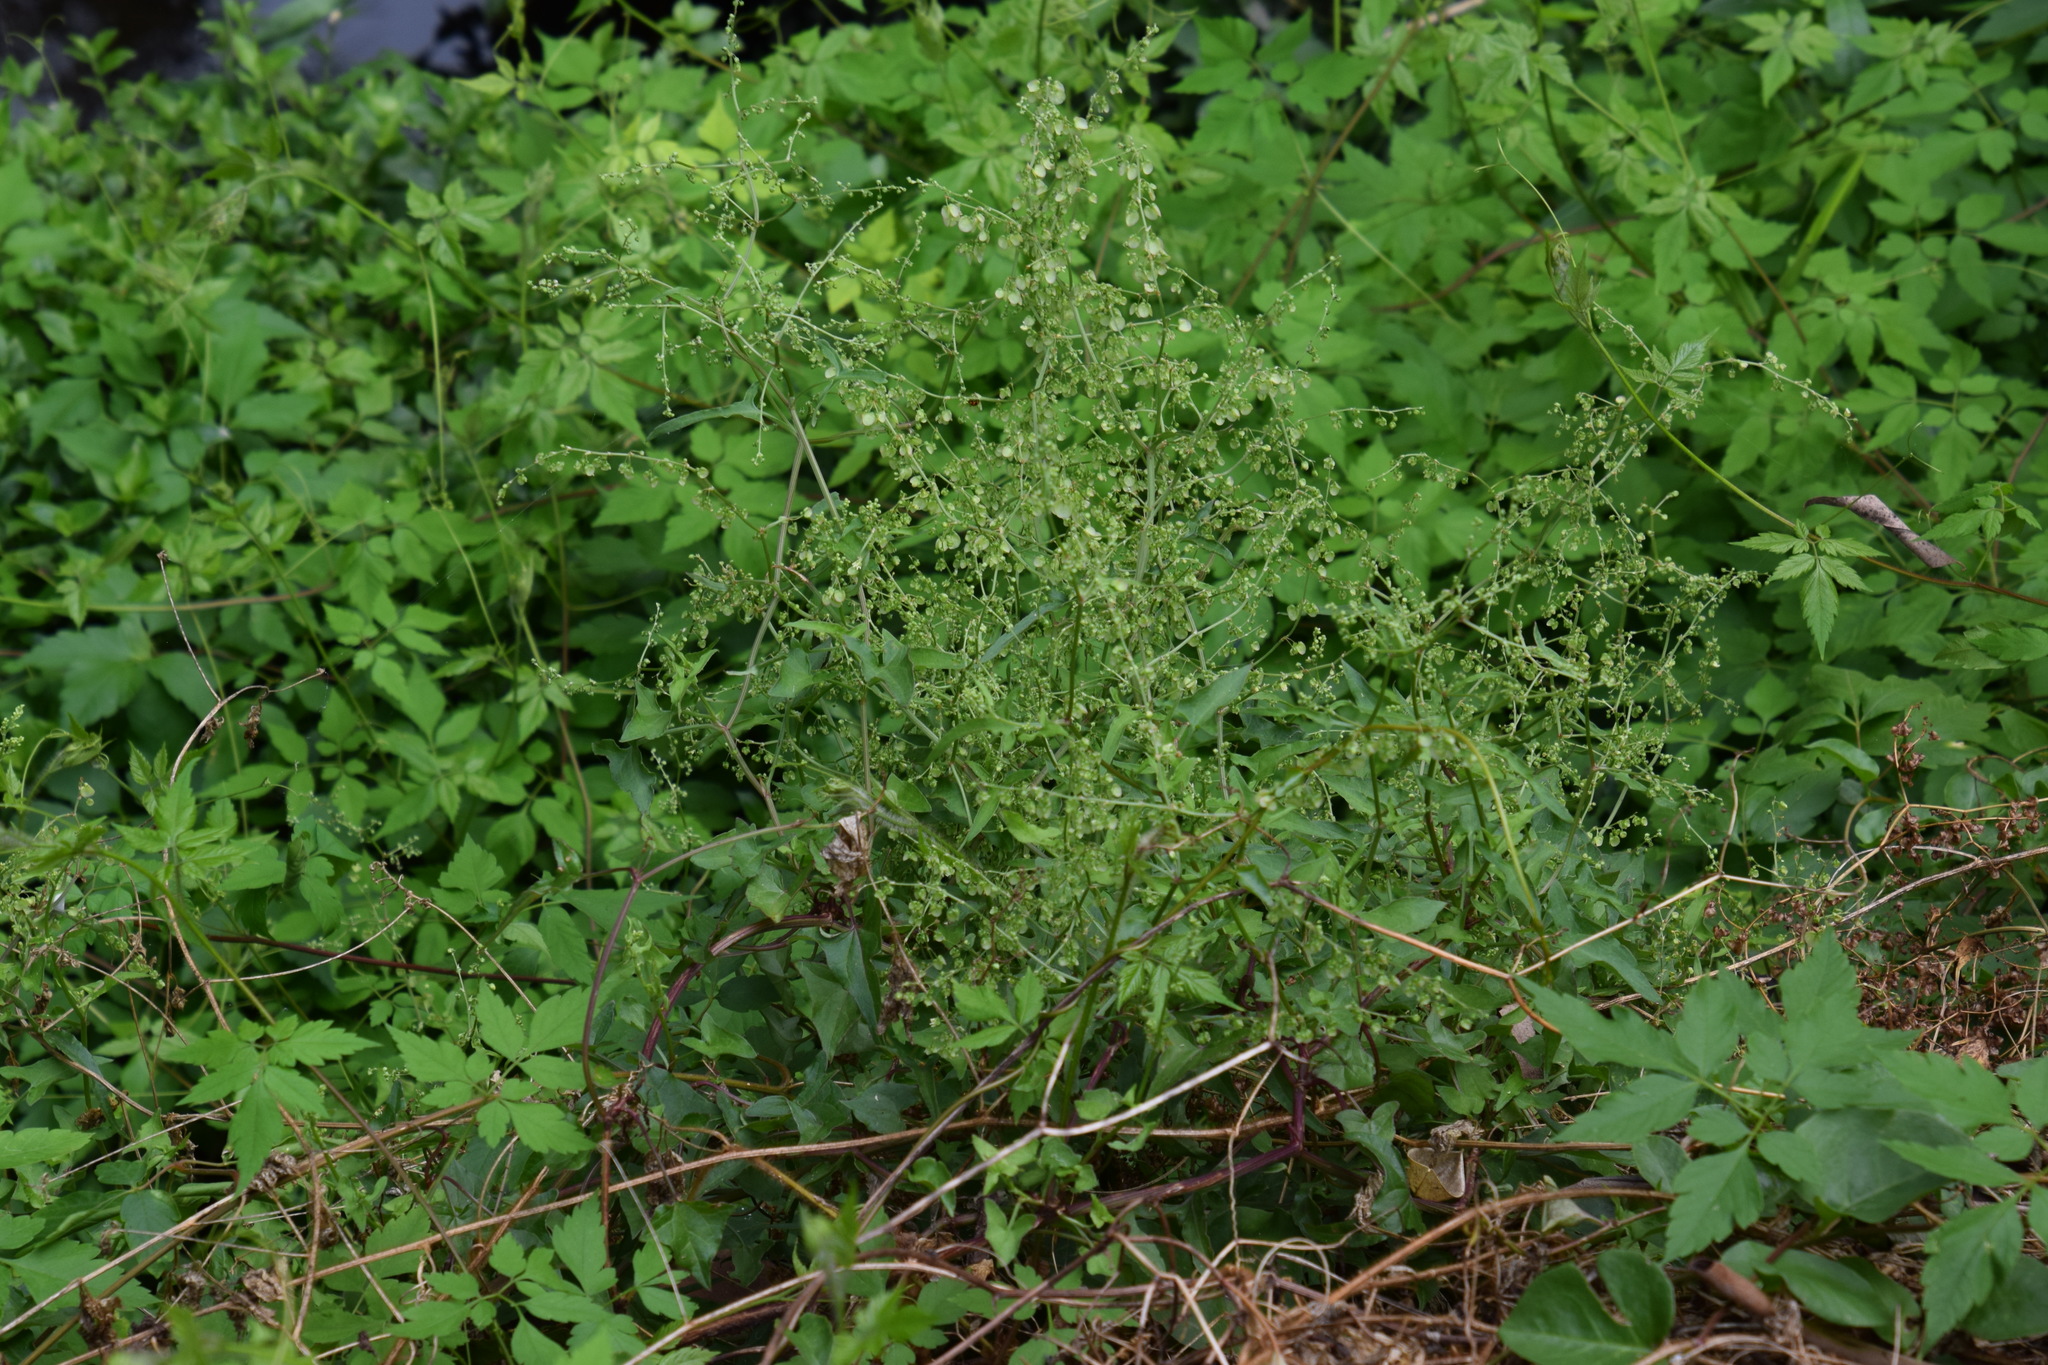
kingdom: Plantae
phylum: Tracheophyta
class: Magnoliopsida
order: Caryophyllales
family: Polygonaceae
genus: Rumex
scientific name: Rumex sagittatus
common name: Climbing dock
